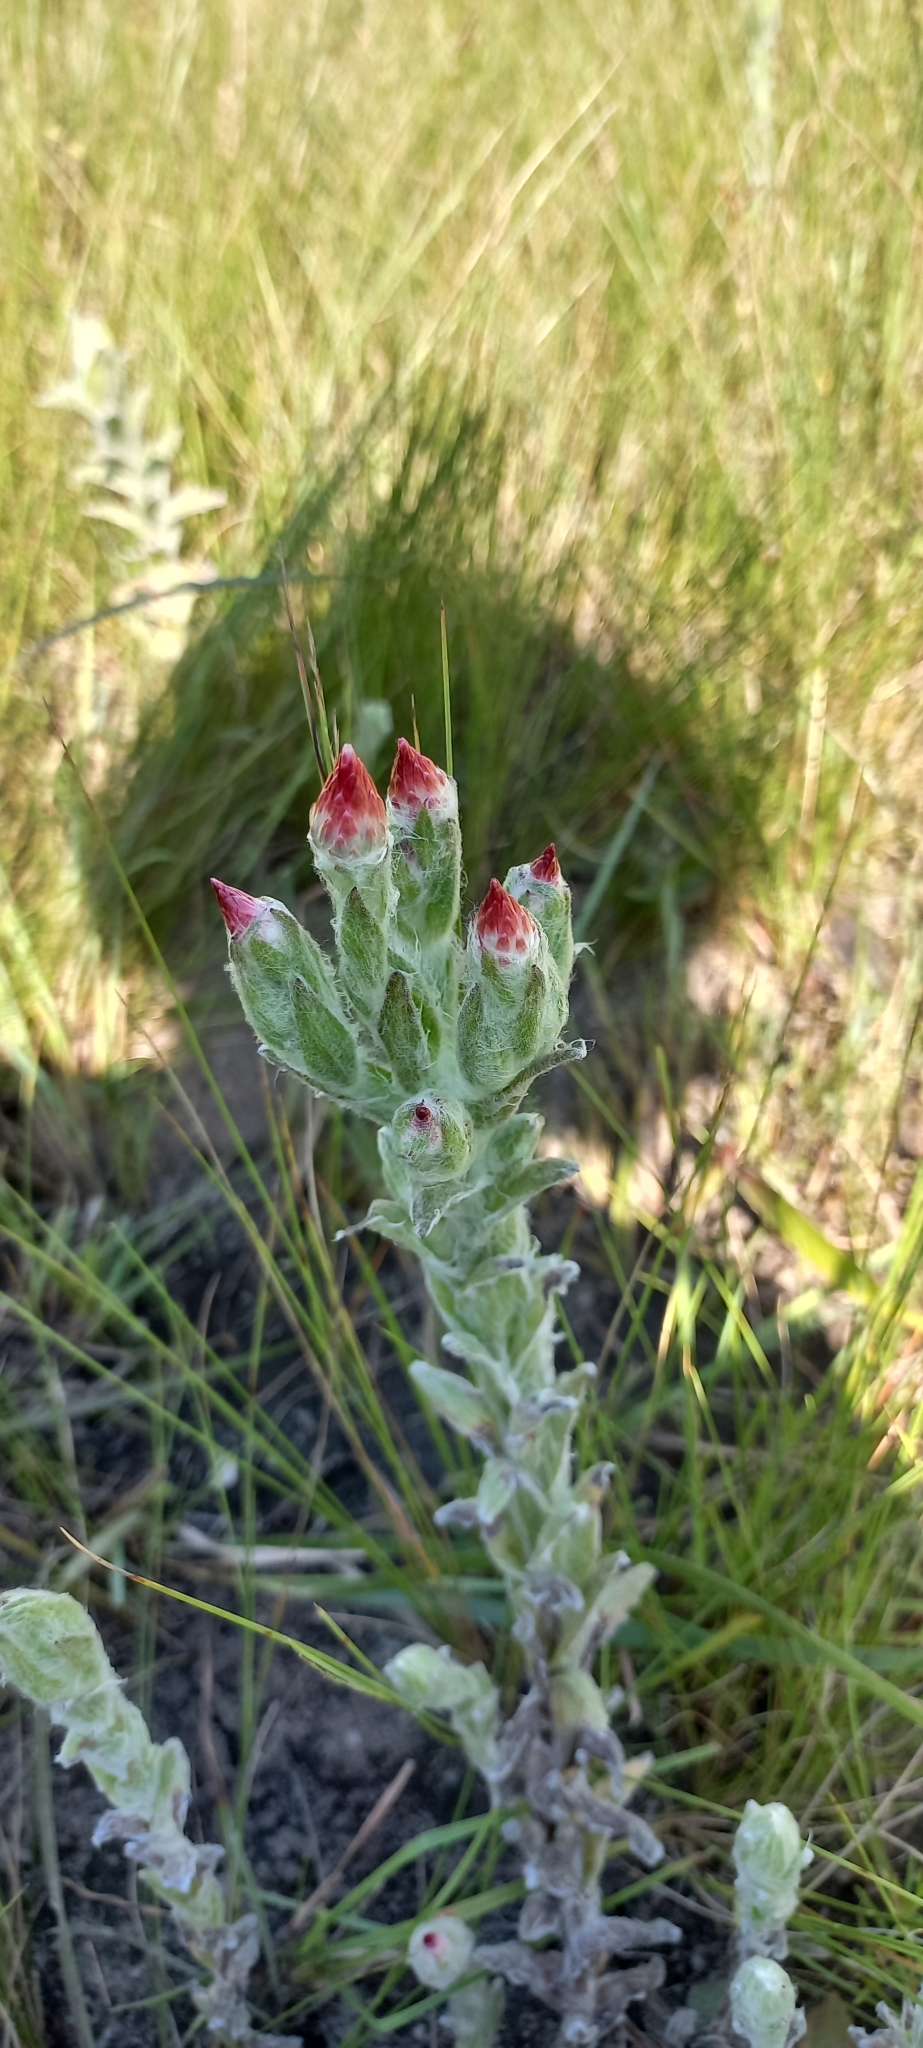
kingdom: Plantae
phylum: Tracheophyta
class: Magnoliopsida
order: Asterales
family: Asteraceae
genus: Helichrysum
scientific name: Helichrysum adenocarpum
